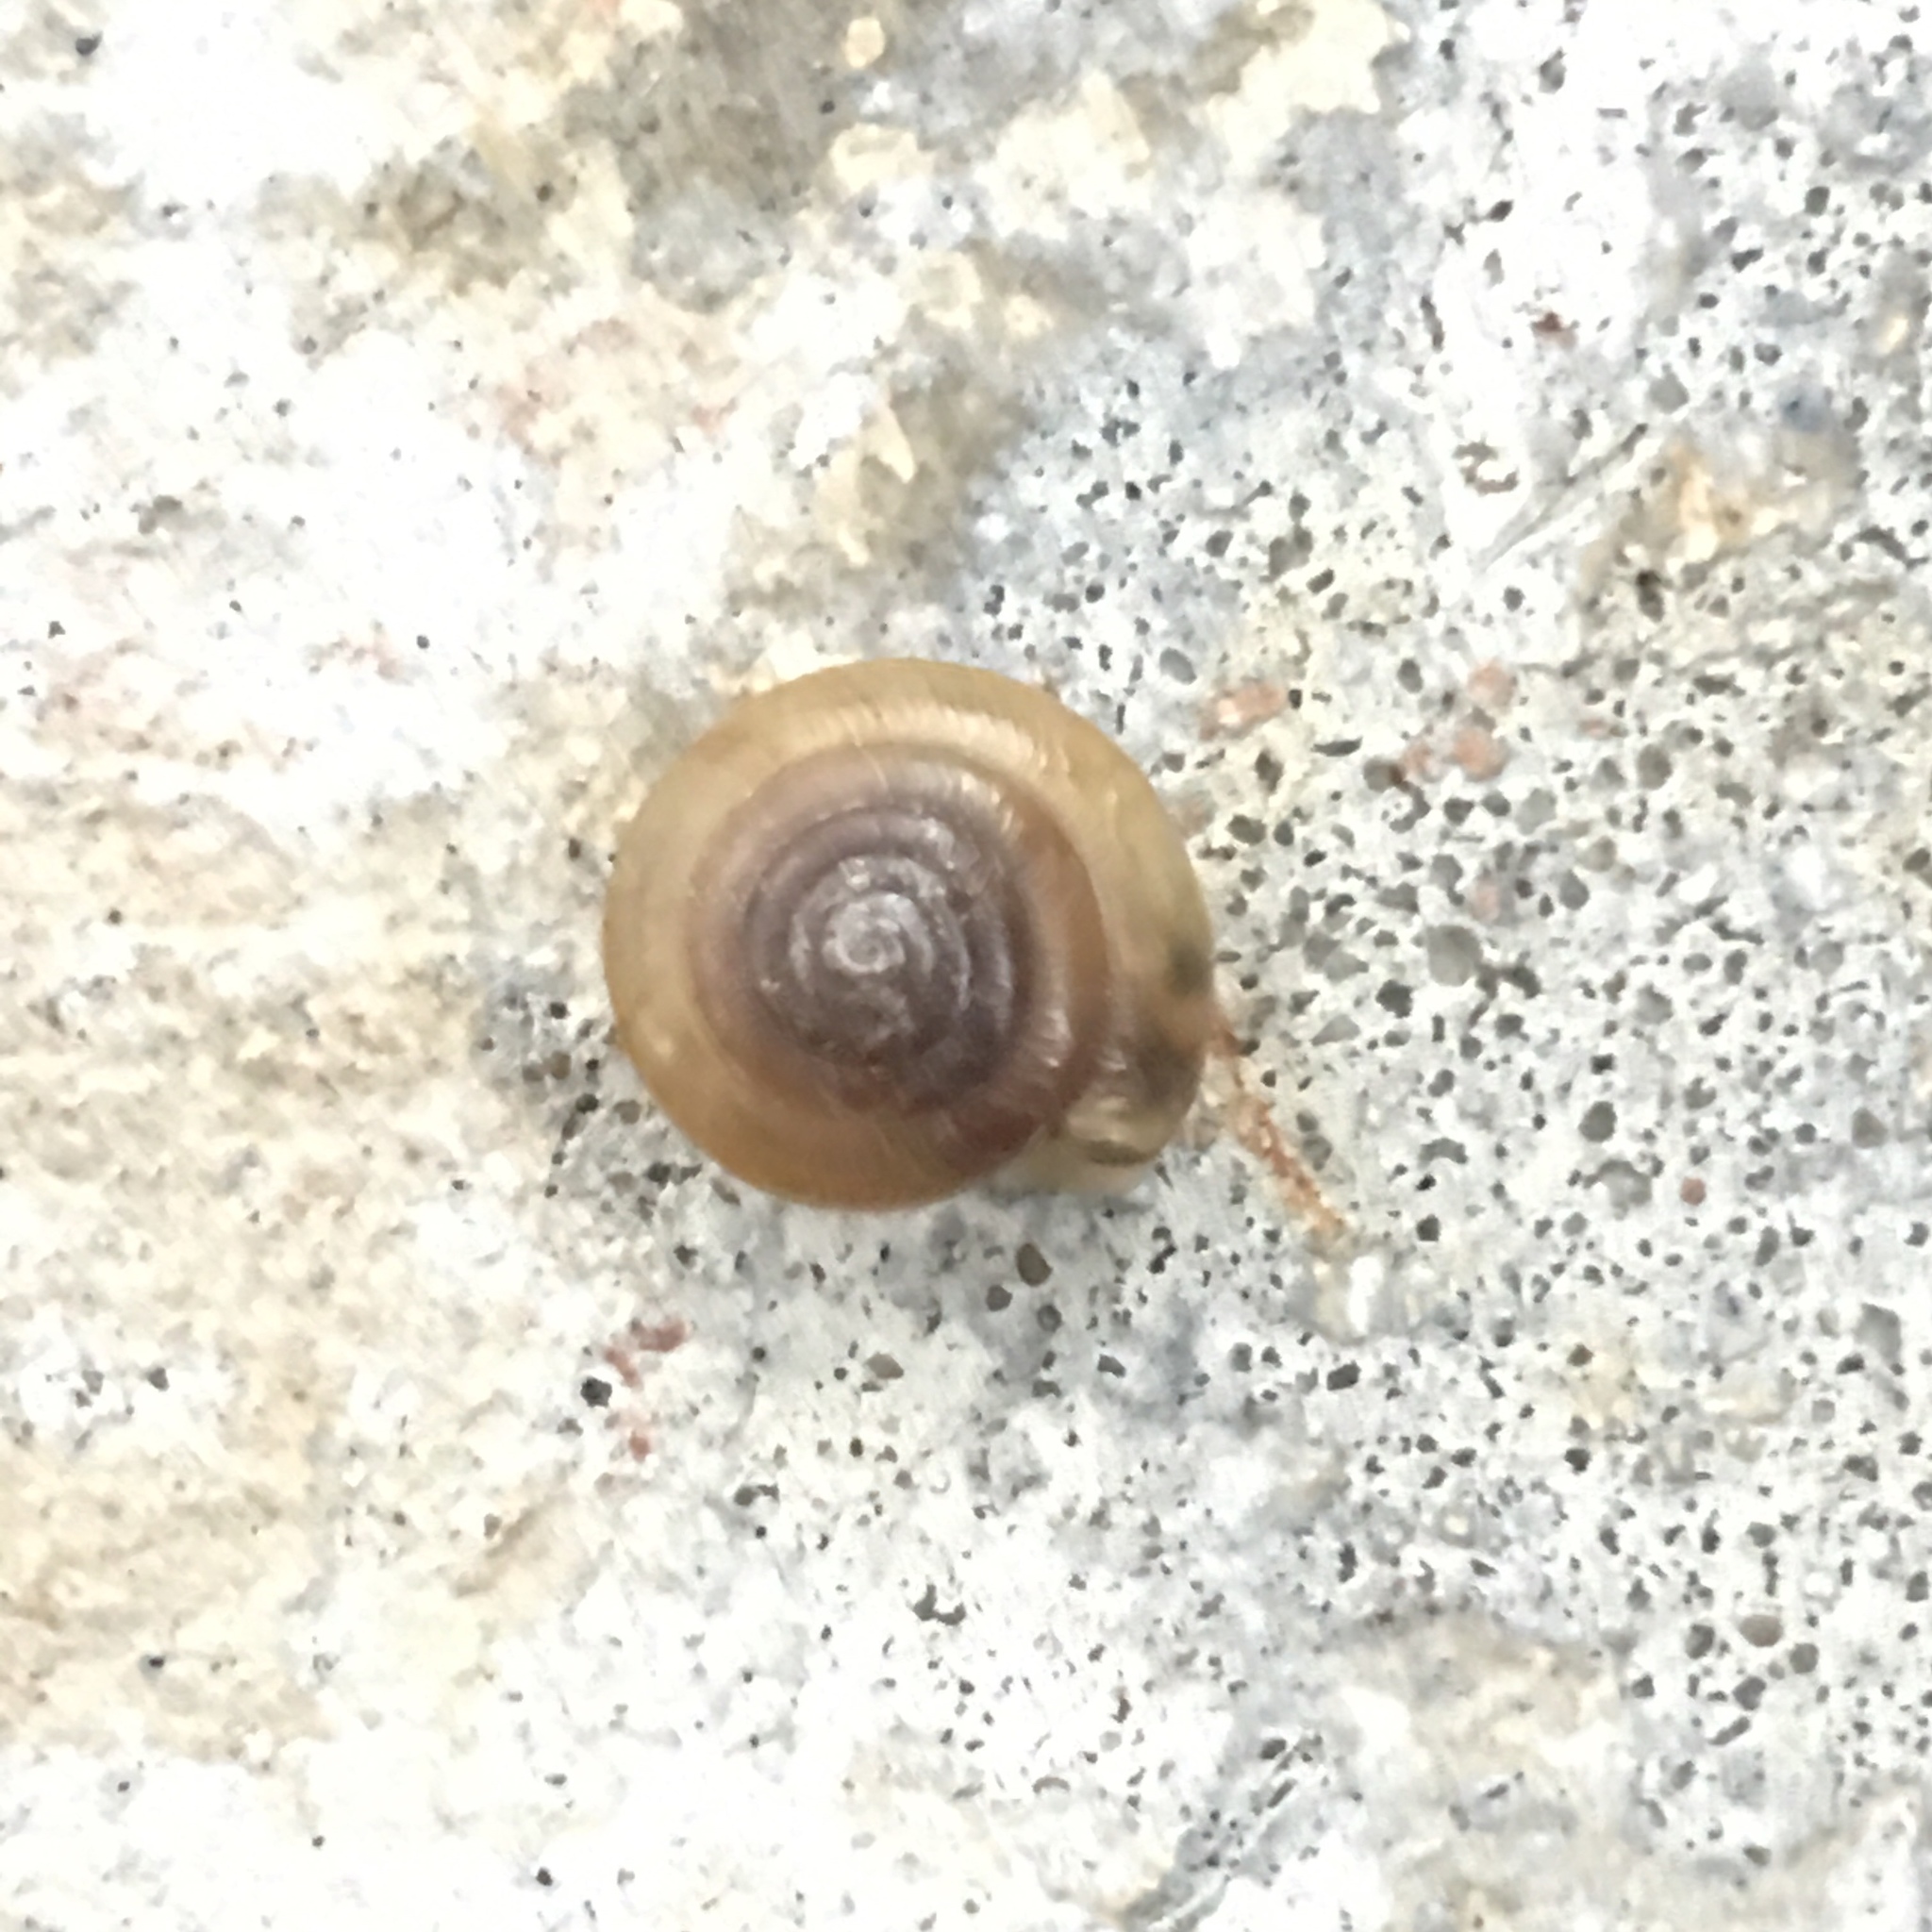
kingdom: Animalia
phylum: Mollusca
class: Gastropoda
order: Stylommatophora
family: Camaenidae
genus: Bradybaena
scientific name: Bradybaena similaris
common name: Asian trampsnail
